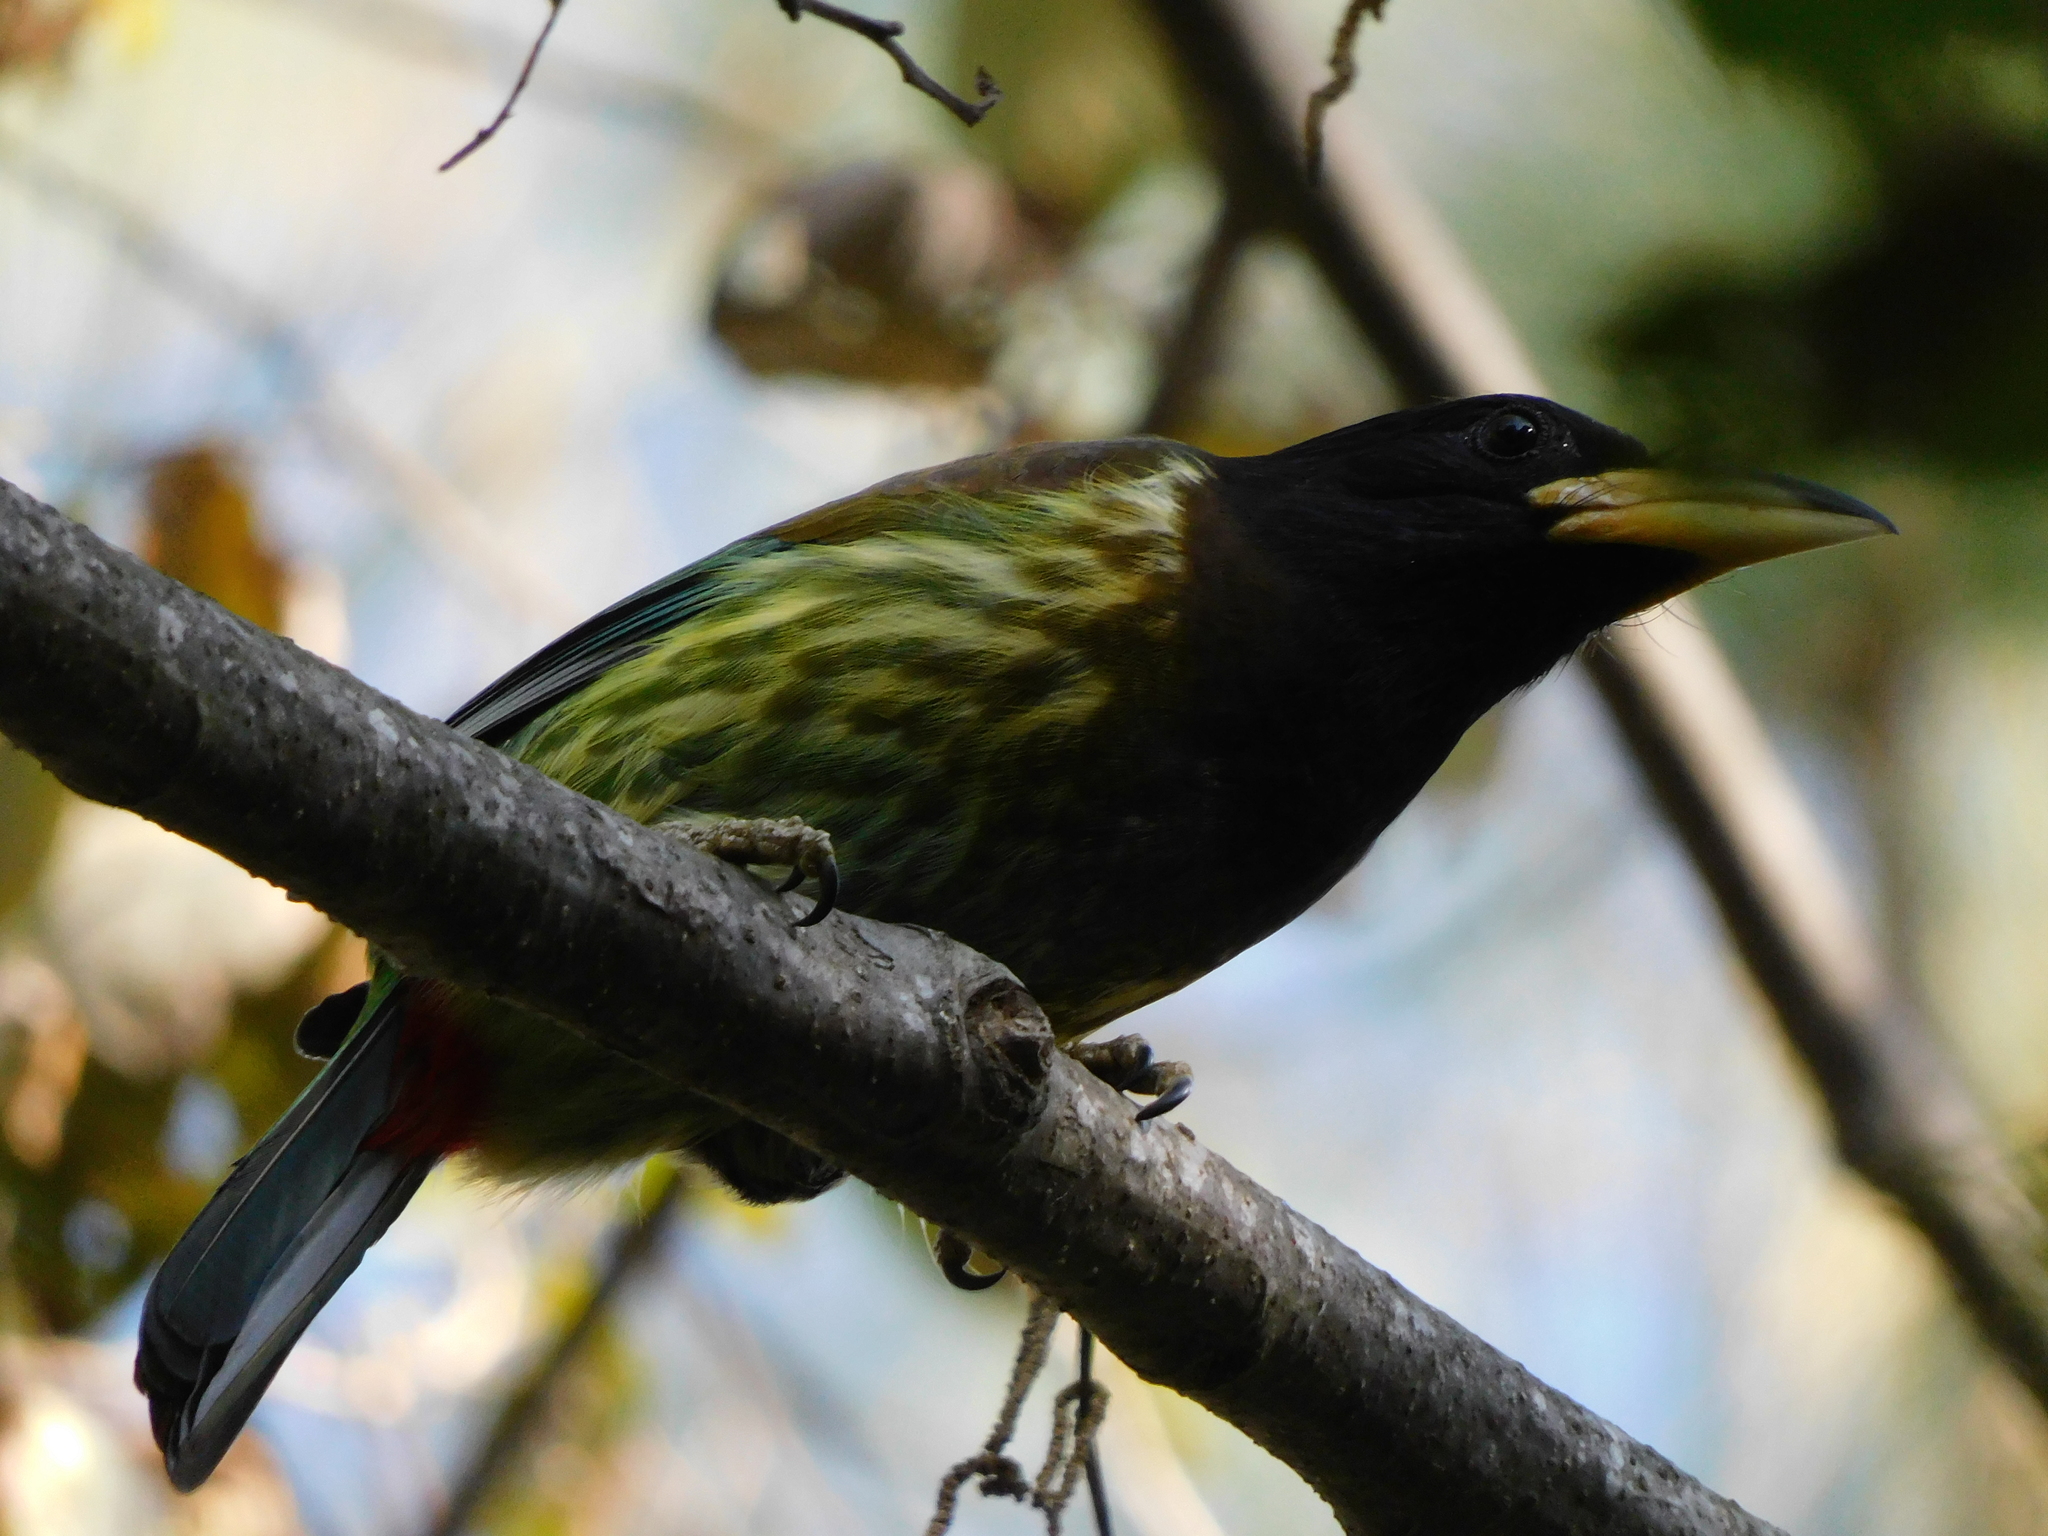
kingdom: Animalia
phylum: Chordata
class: Aves
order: Piciformes
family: Megalaimidae
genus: Psilopogon
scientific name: Psilopogon virens
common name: Great barbet
